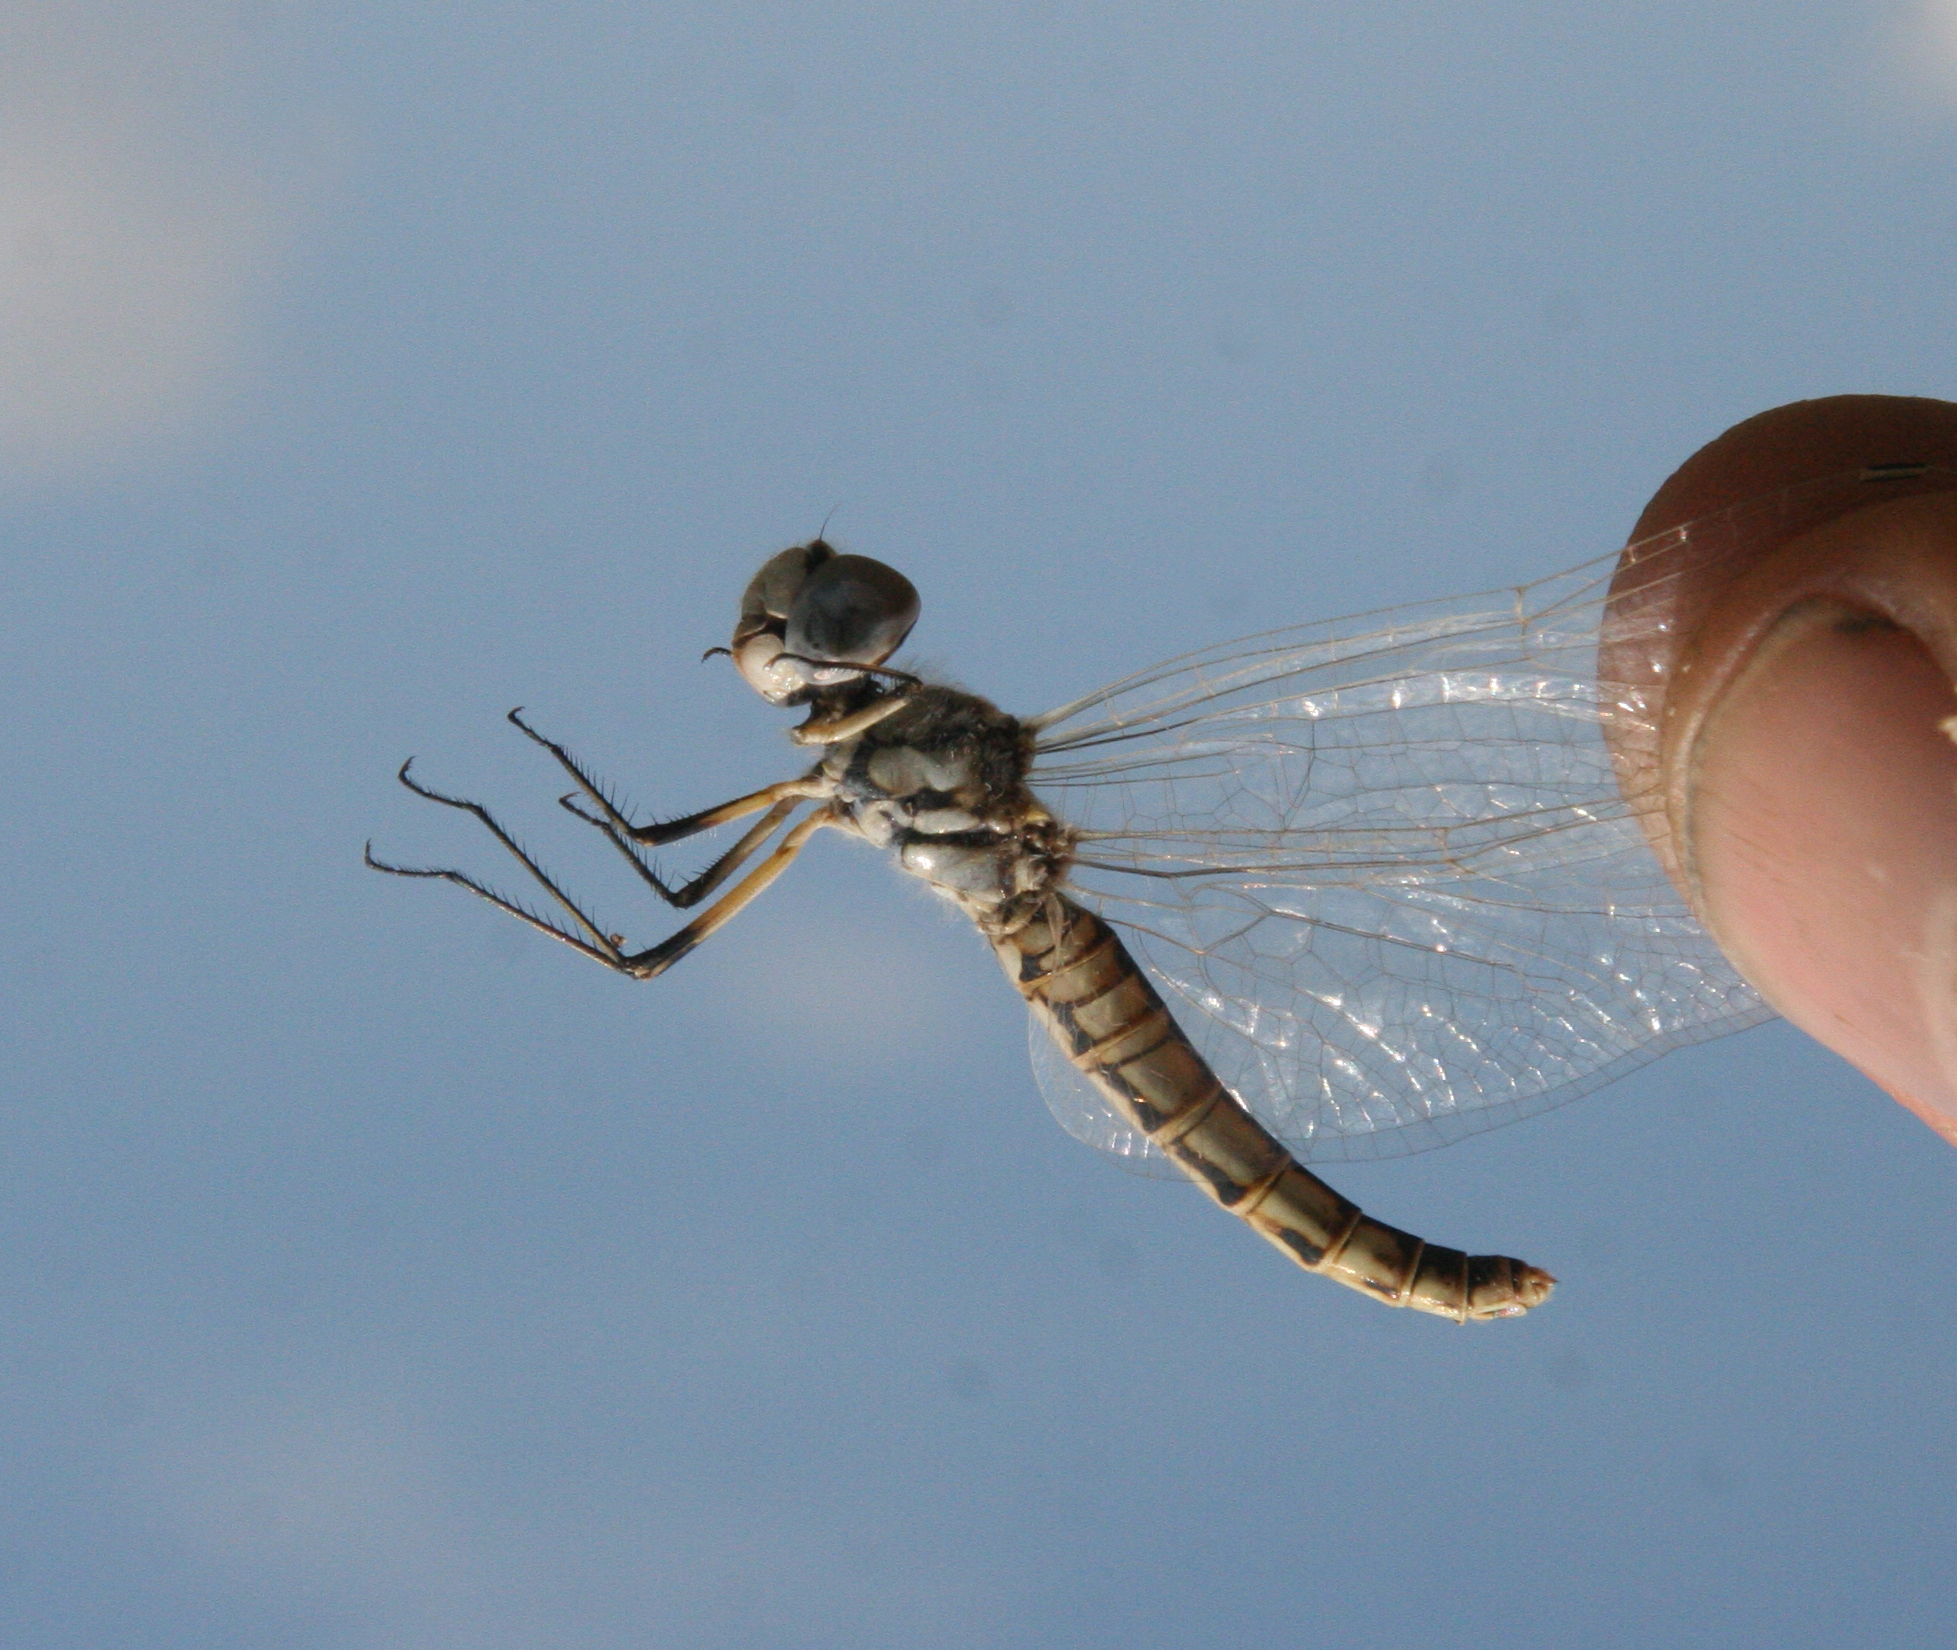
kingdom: Animalia
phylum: Arthropoda
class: Insecta
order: Odonata
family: Libellulidae
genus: Selysiothemis
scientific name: Selysiothemis nigra
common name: Black pennant
